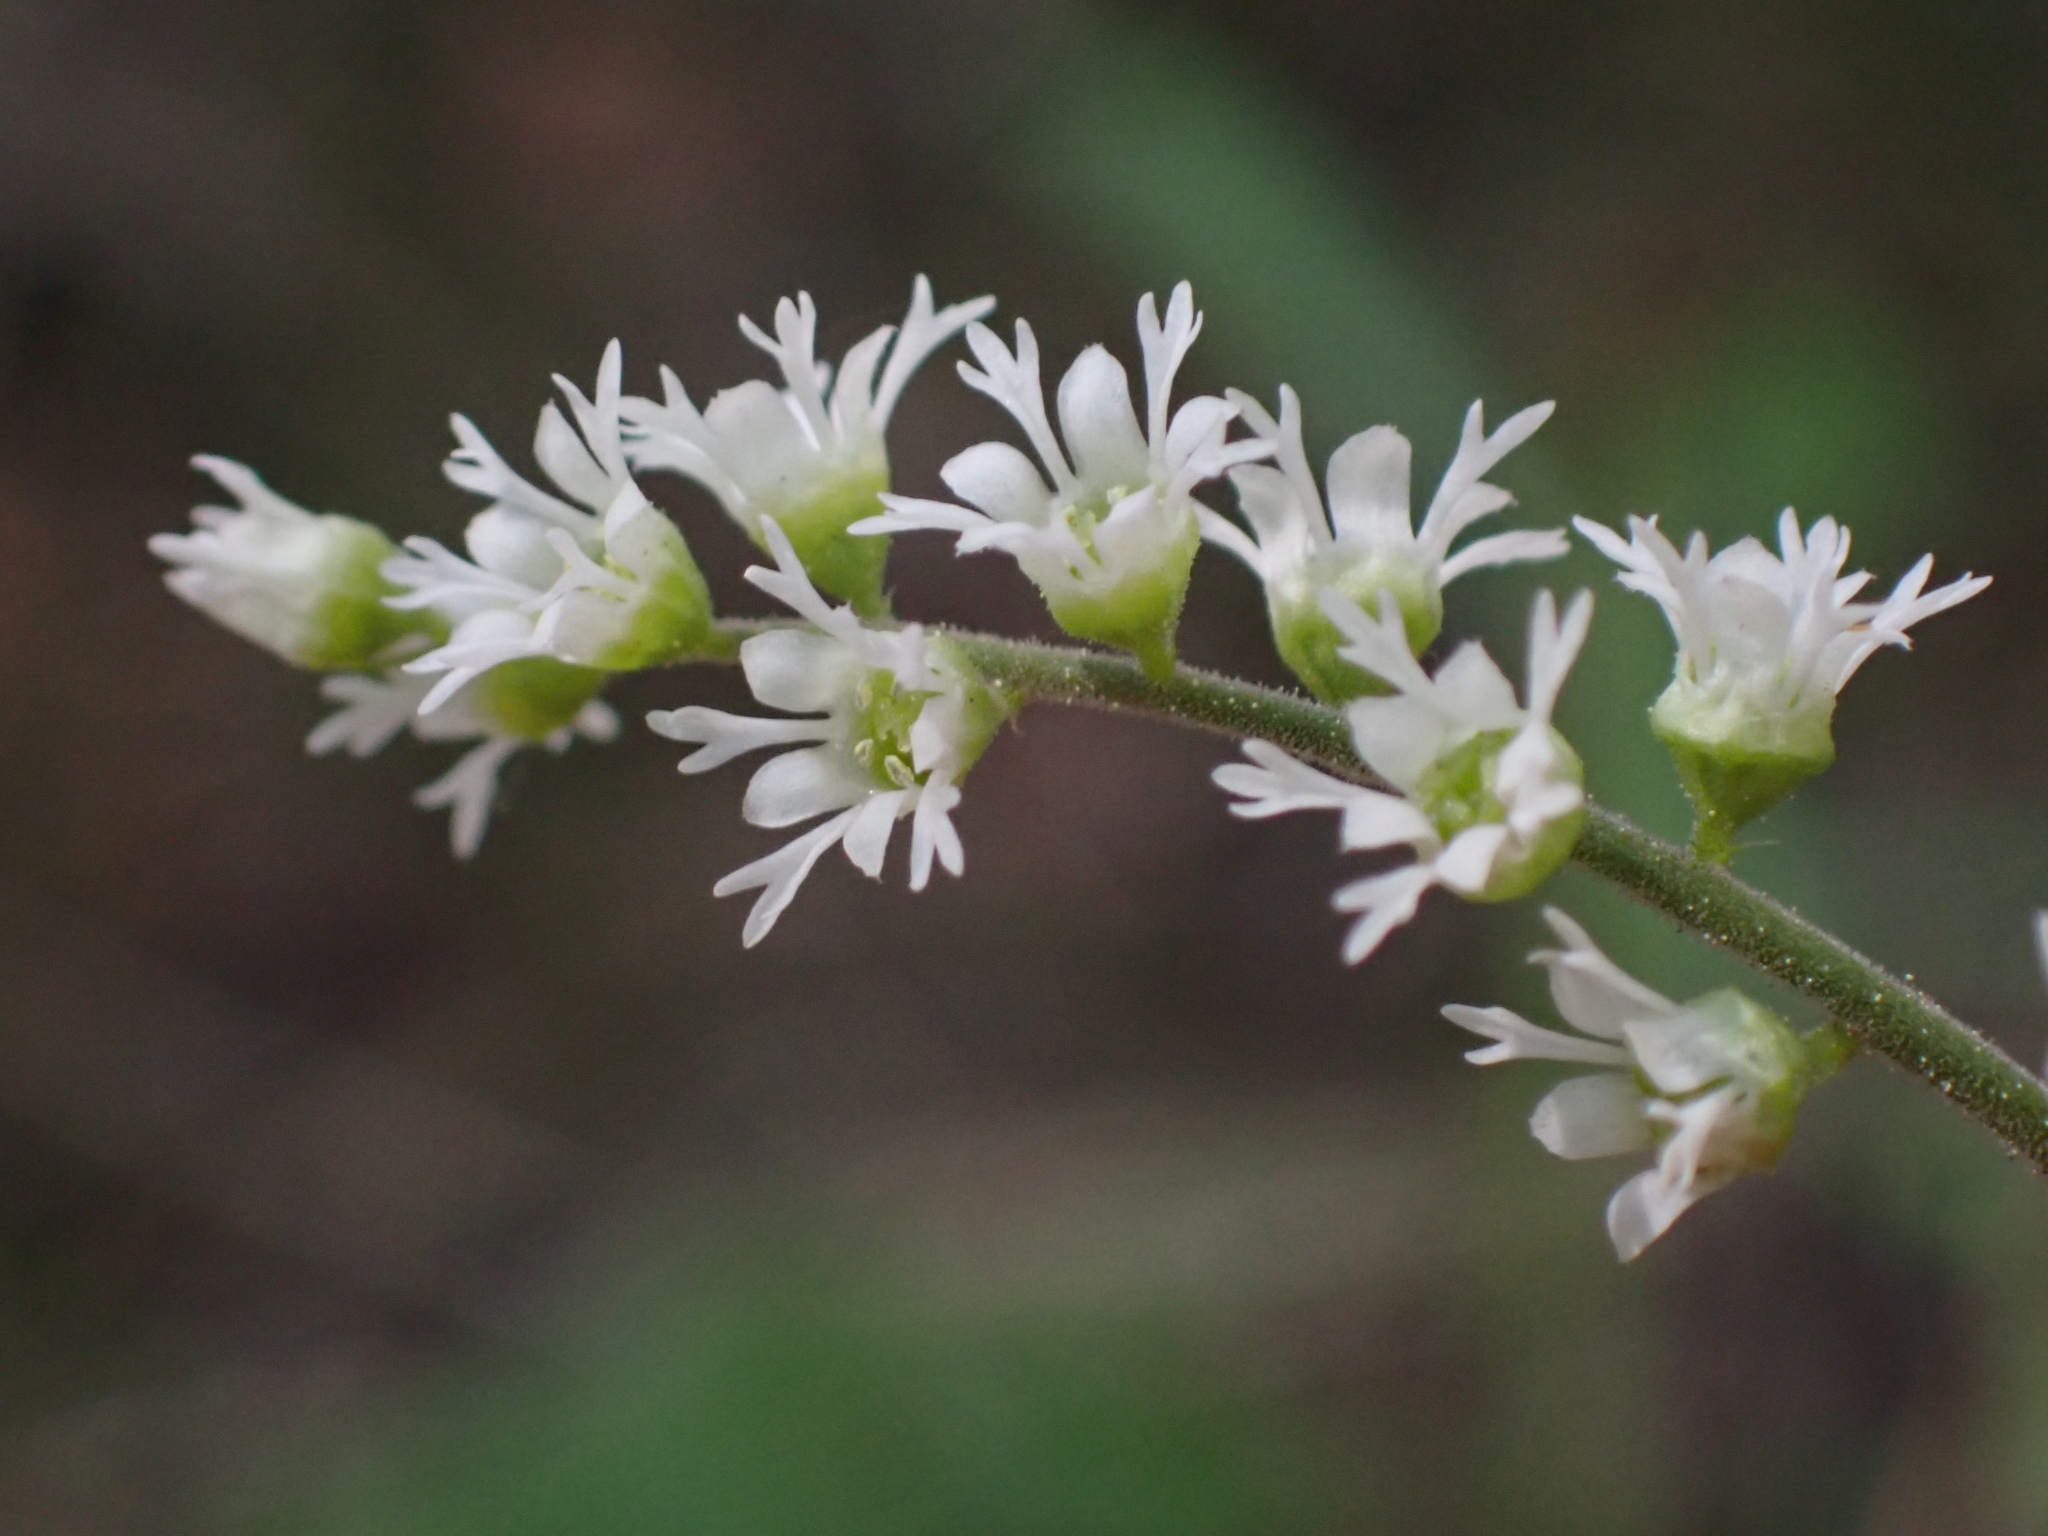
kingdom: Plantae
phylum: Tracheophyta
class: Magnoliopsida
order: Saxifragales
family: Saxifragaceae
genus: Ozomelis
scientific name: Ozomelis trifida
